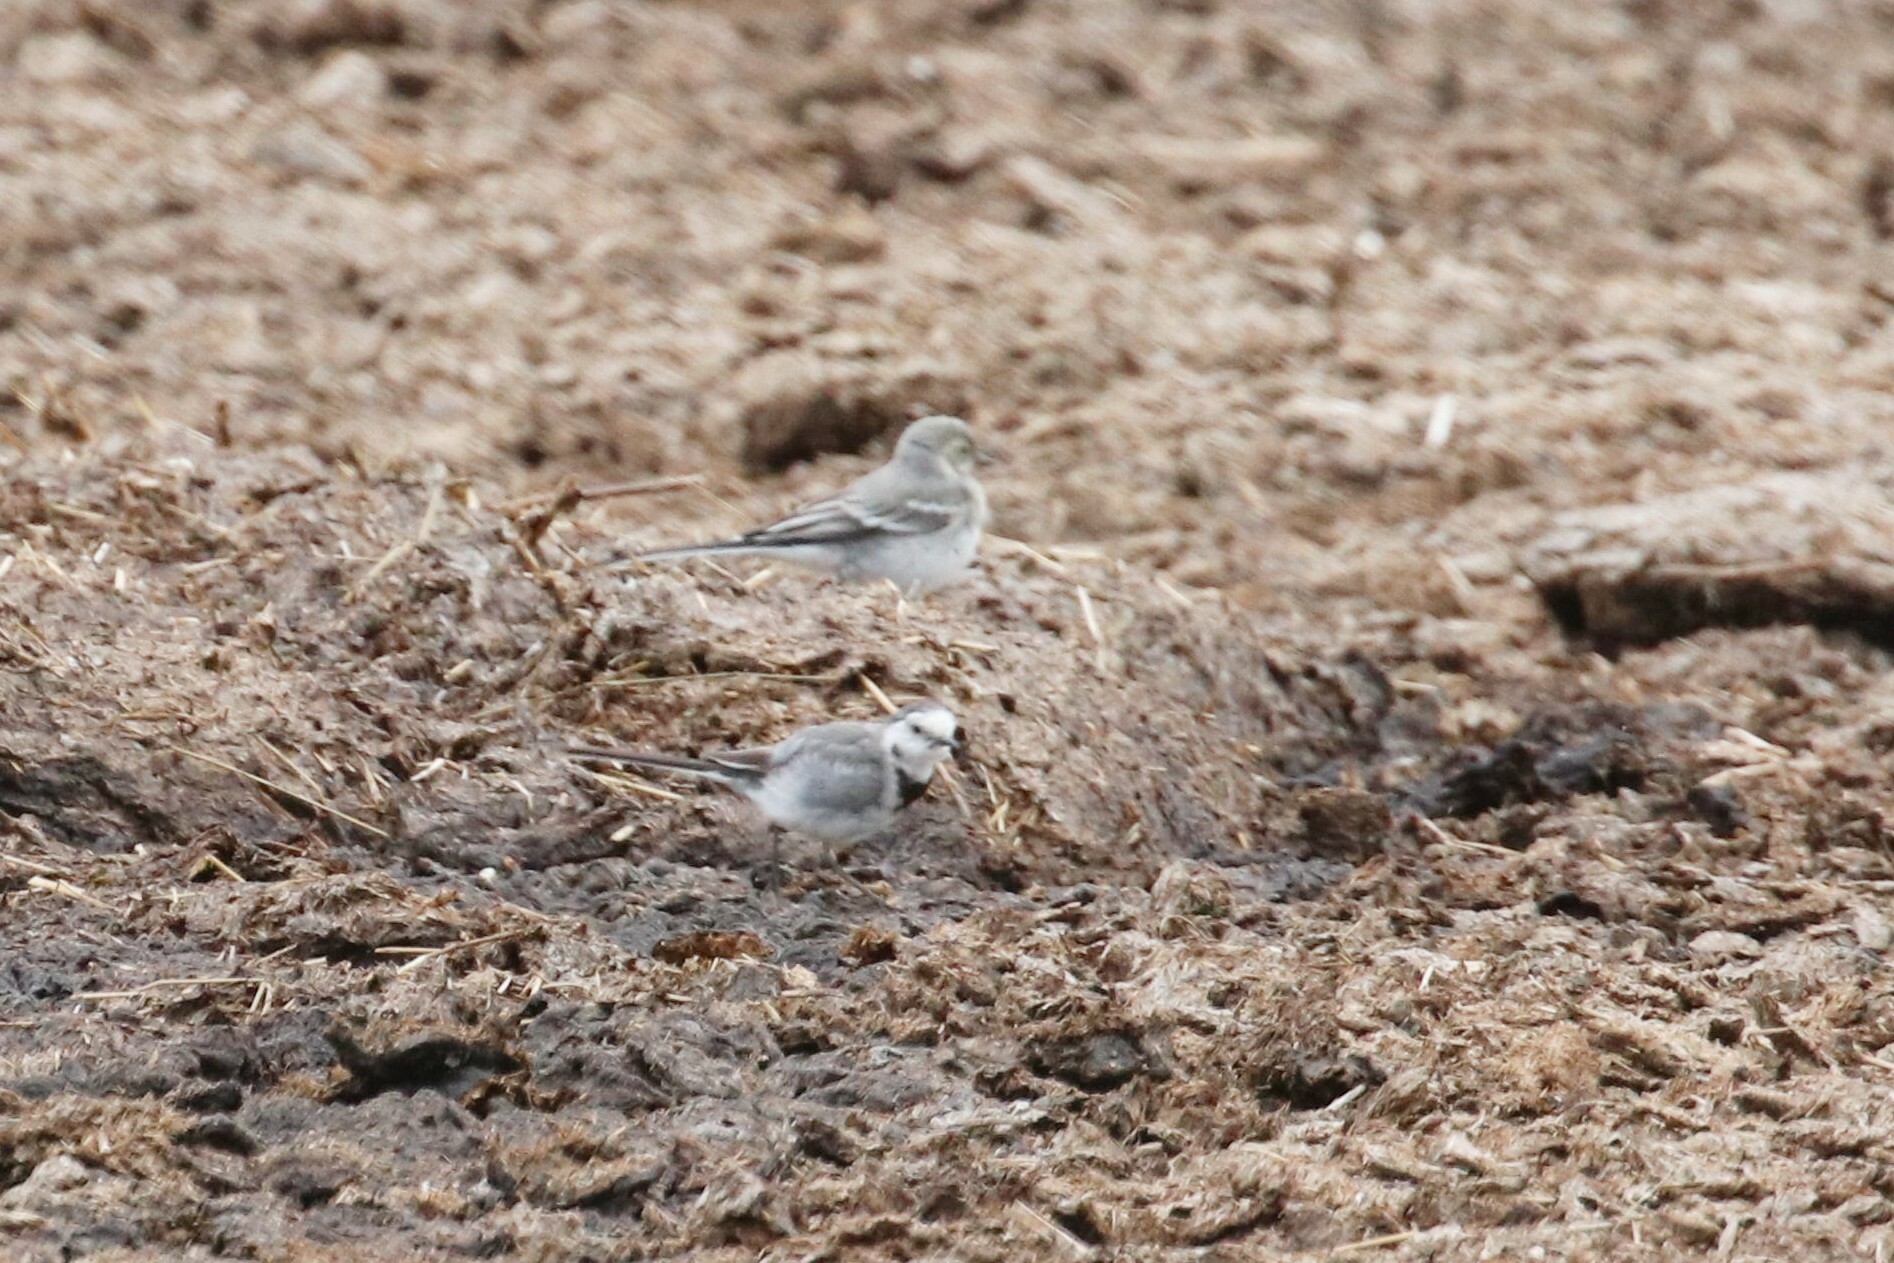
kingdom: Animalia
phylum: Chordata
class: Aves
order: Passeriformes
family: Motacillidae
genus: Motacilla
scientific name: Motacilla alba
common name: White wagtail
